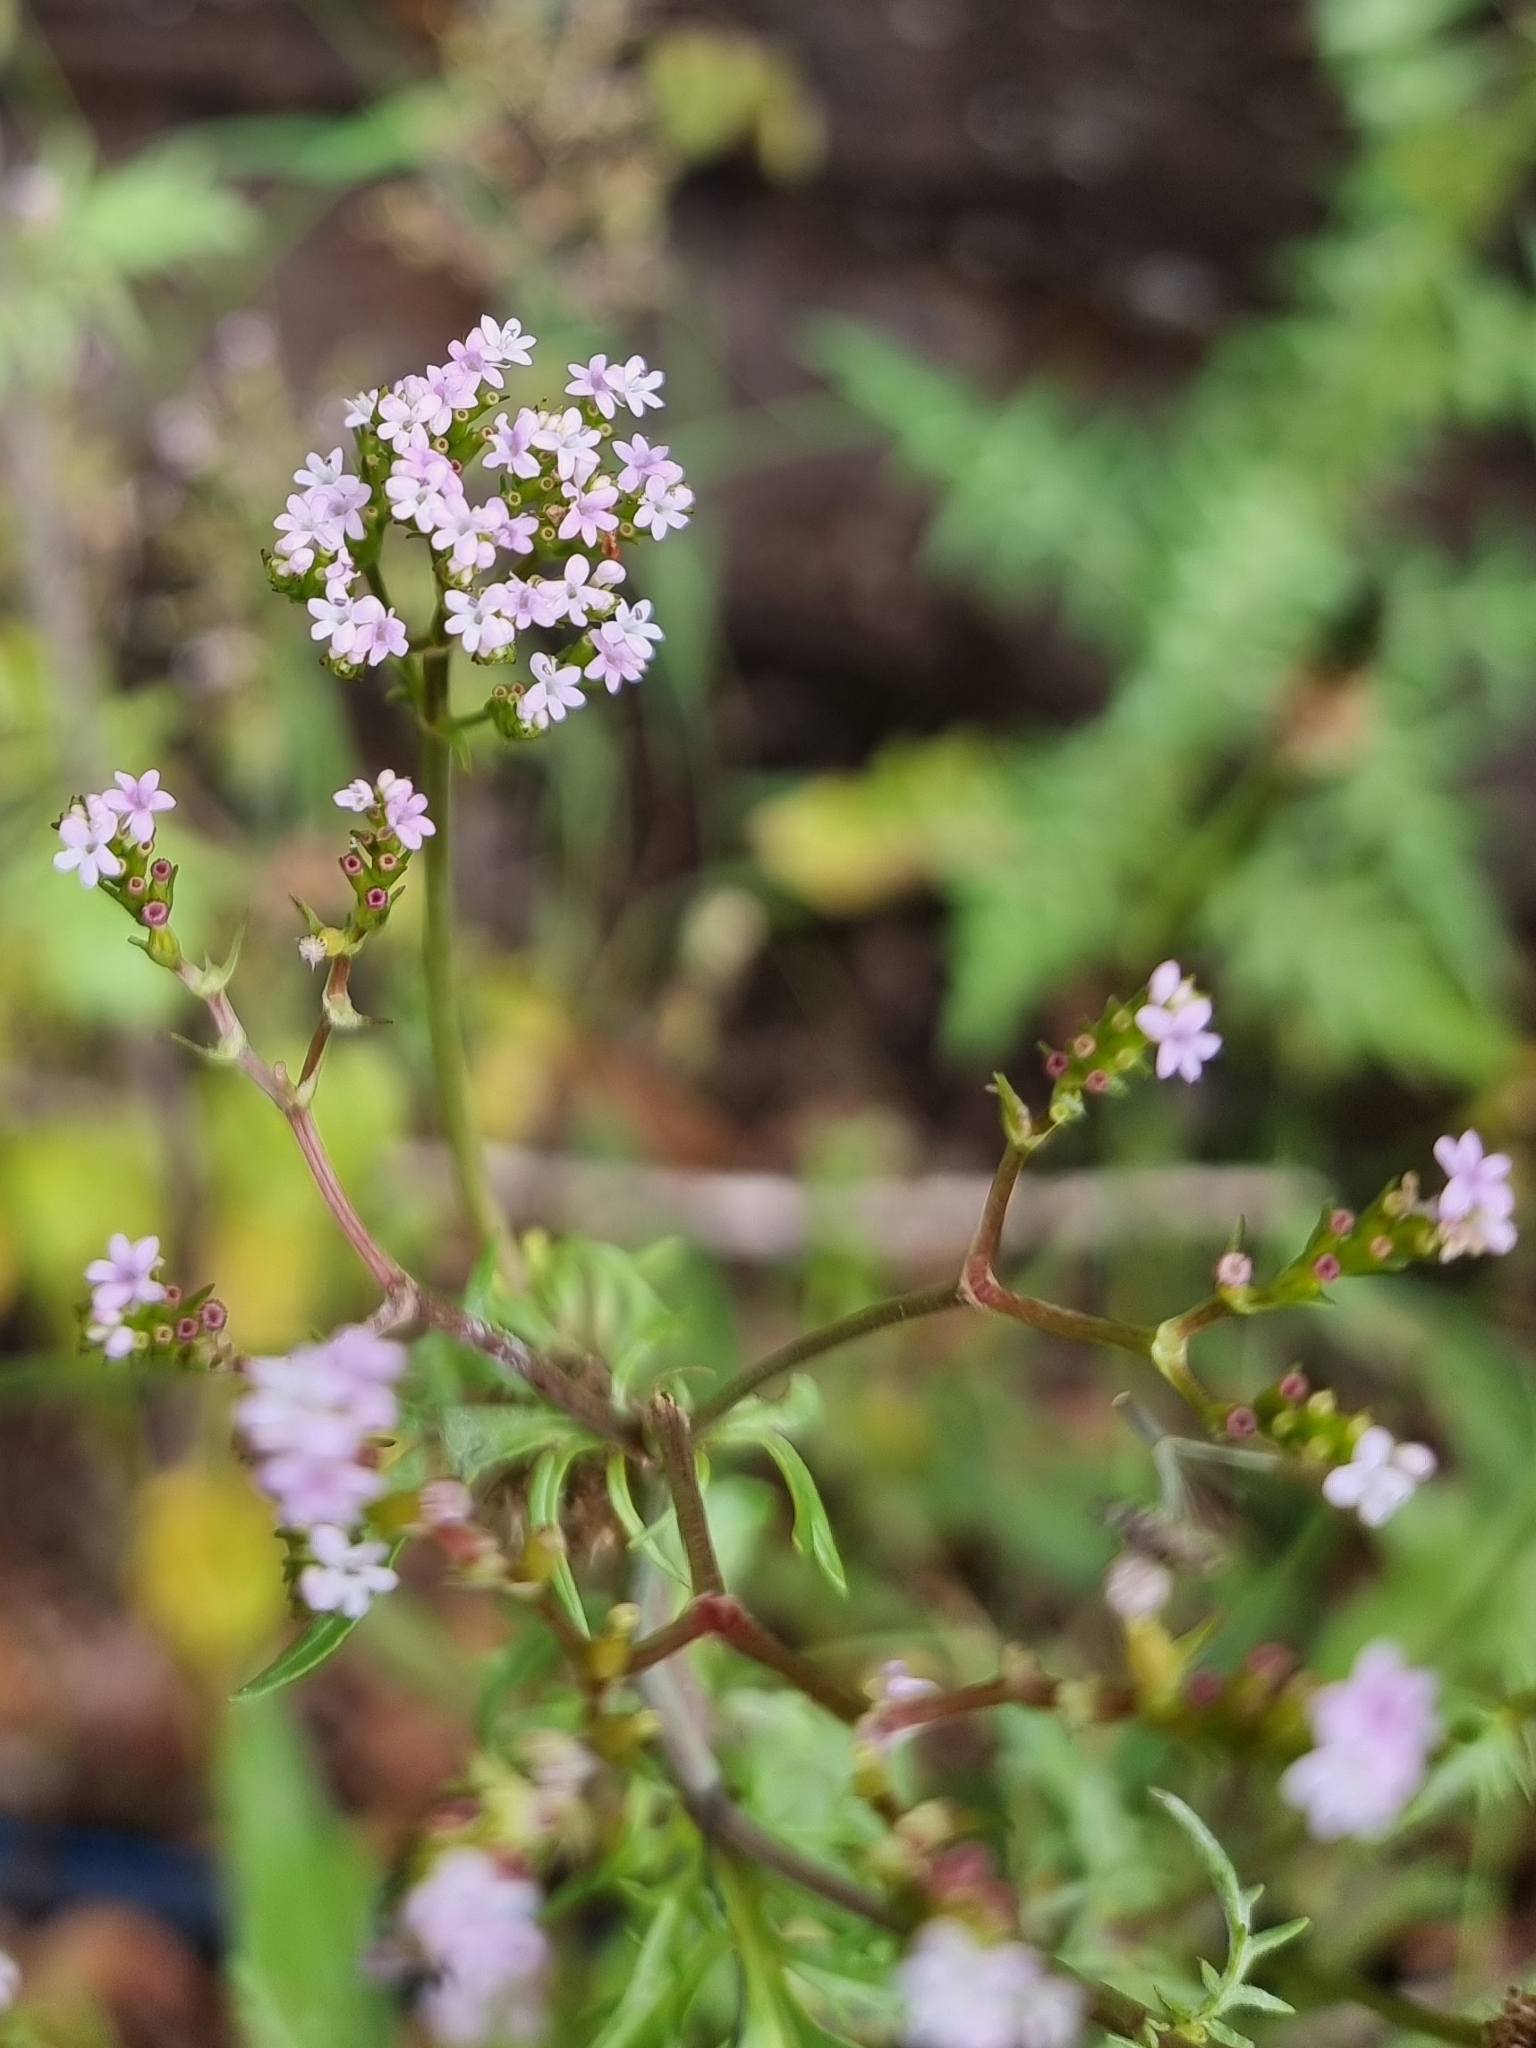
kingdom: Plantae
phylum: Tracheophyta
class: Magnoliopsida
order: Dipsacales
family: Caprifoliaceae
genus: Centranthus
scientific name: Centranthus calcitrapae
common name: Annual valerian
